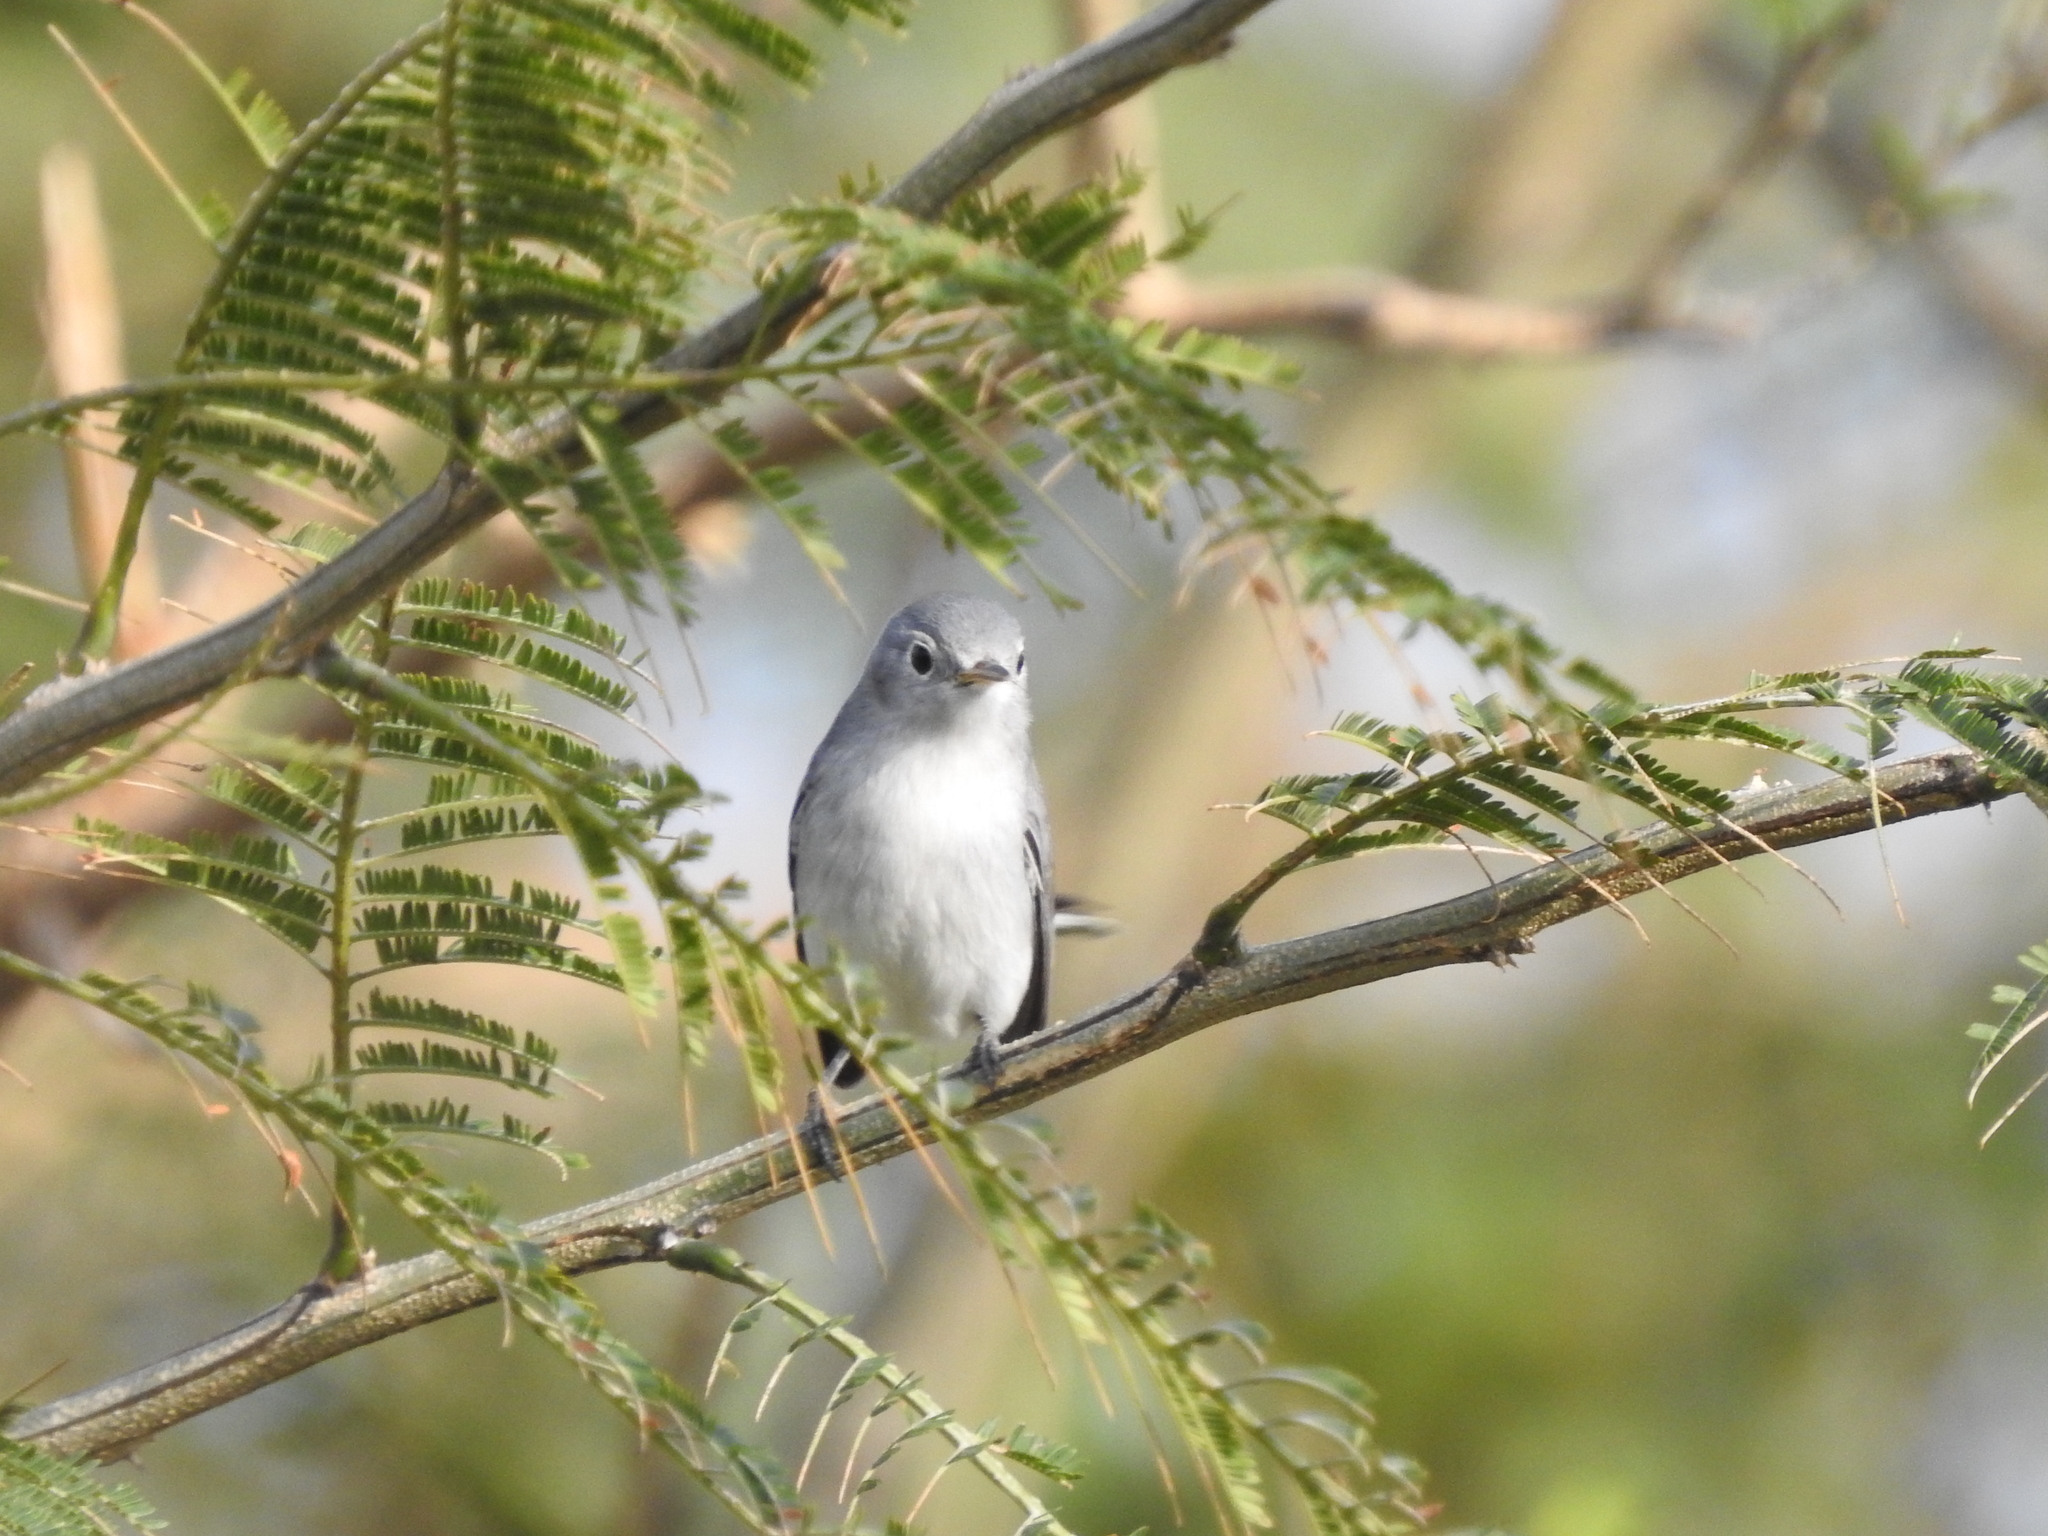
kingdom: Animalia
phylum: Chordata
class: Aves
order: Passeriformes
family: Polioptilidae
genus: Polioptila
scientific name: Polioptila caerulea
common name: Blue-gray gnatcatcher
